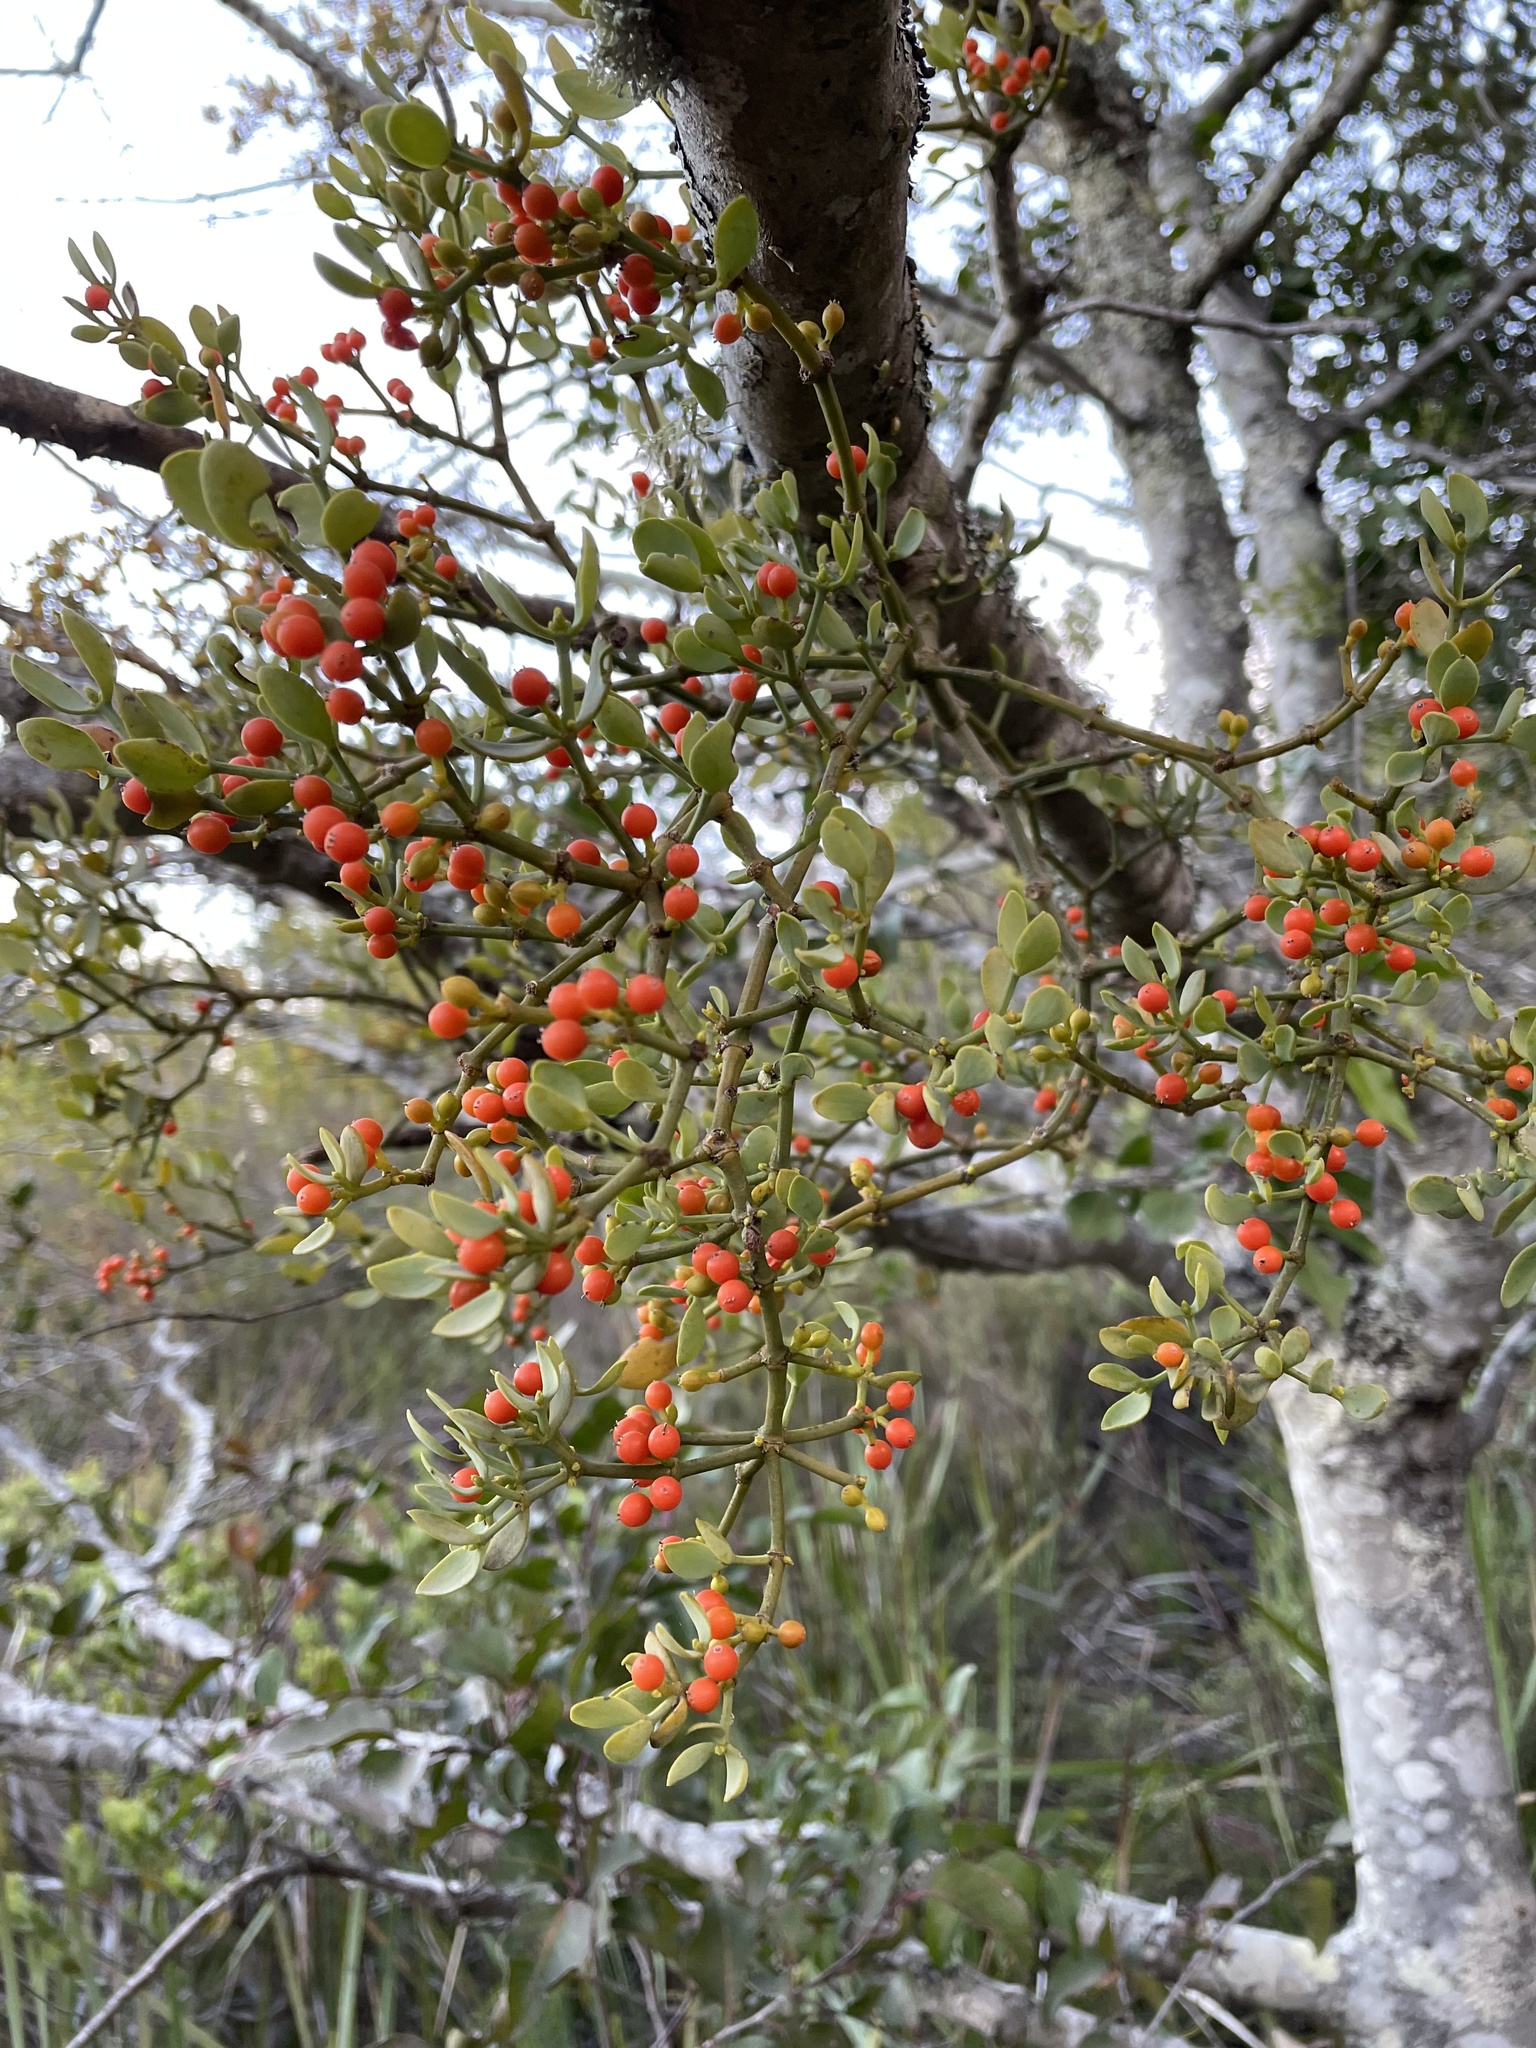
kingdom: Plantae
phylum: Tracheophyta
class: Magnoliopsida
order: Santalales
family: Viscaceae
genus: Viscum
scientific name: Viscum rotundifolium
